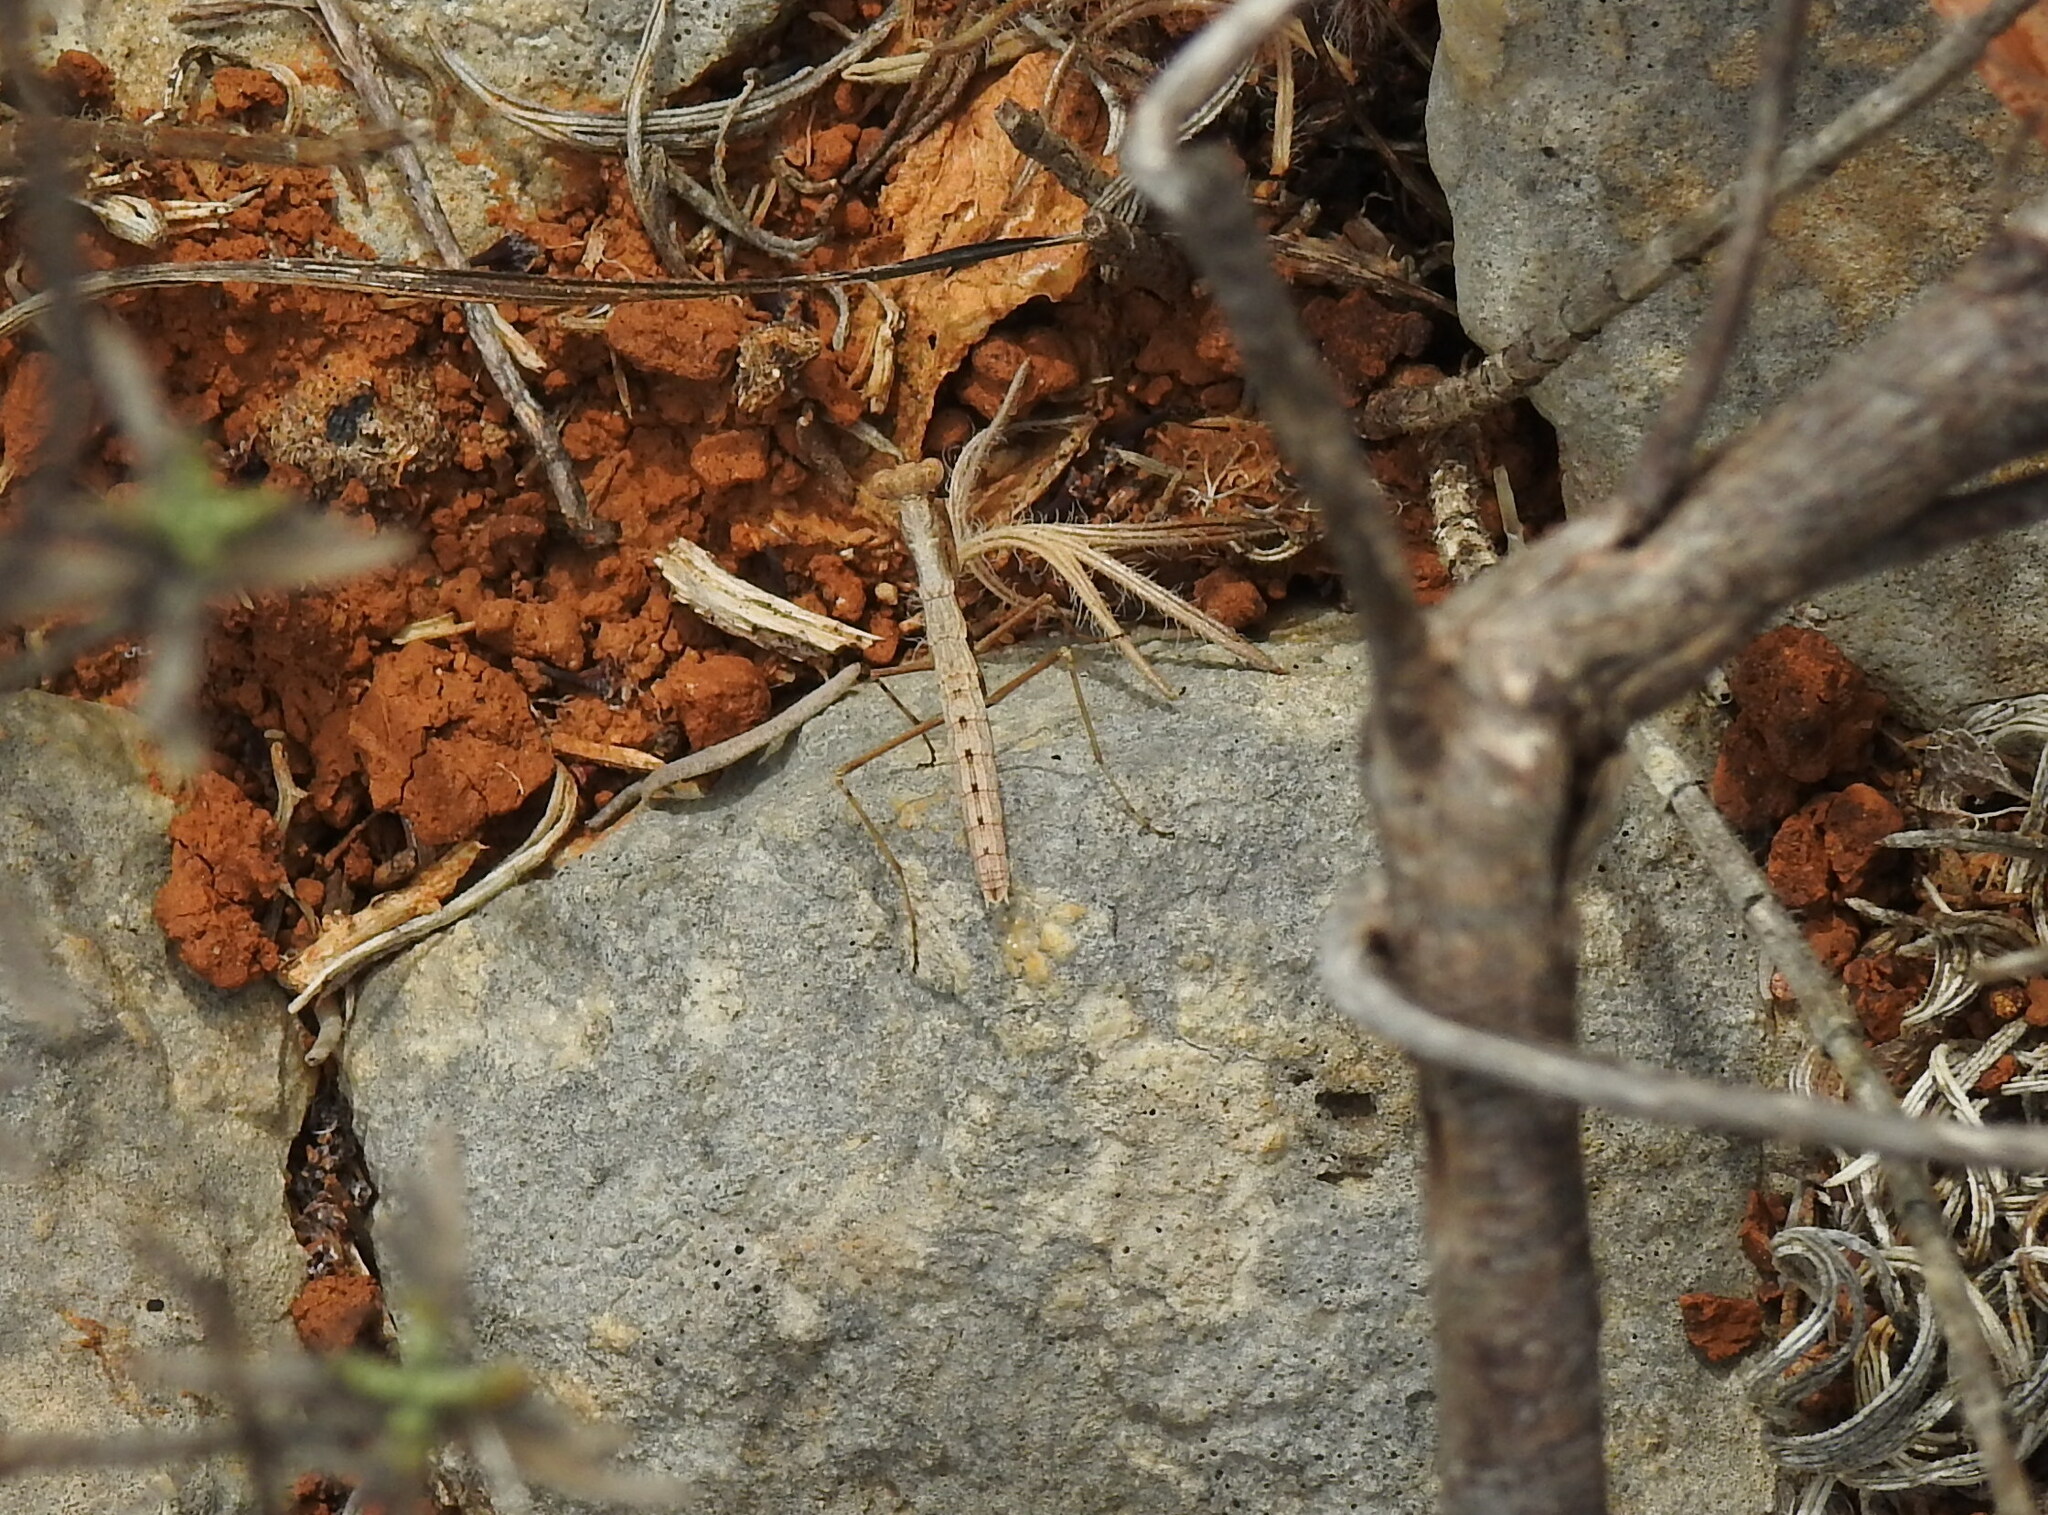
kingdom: Animalia
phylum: Arthropoda
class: Insecta
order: Mantodea
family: Rivetinidae
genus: Geomantis
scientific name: Geomantis larvoides
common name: Wingless ground mantis
